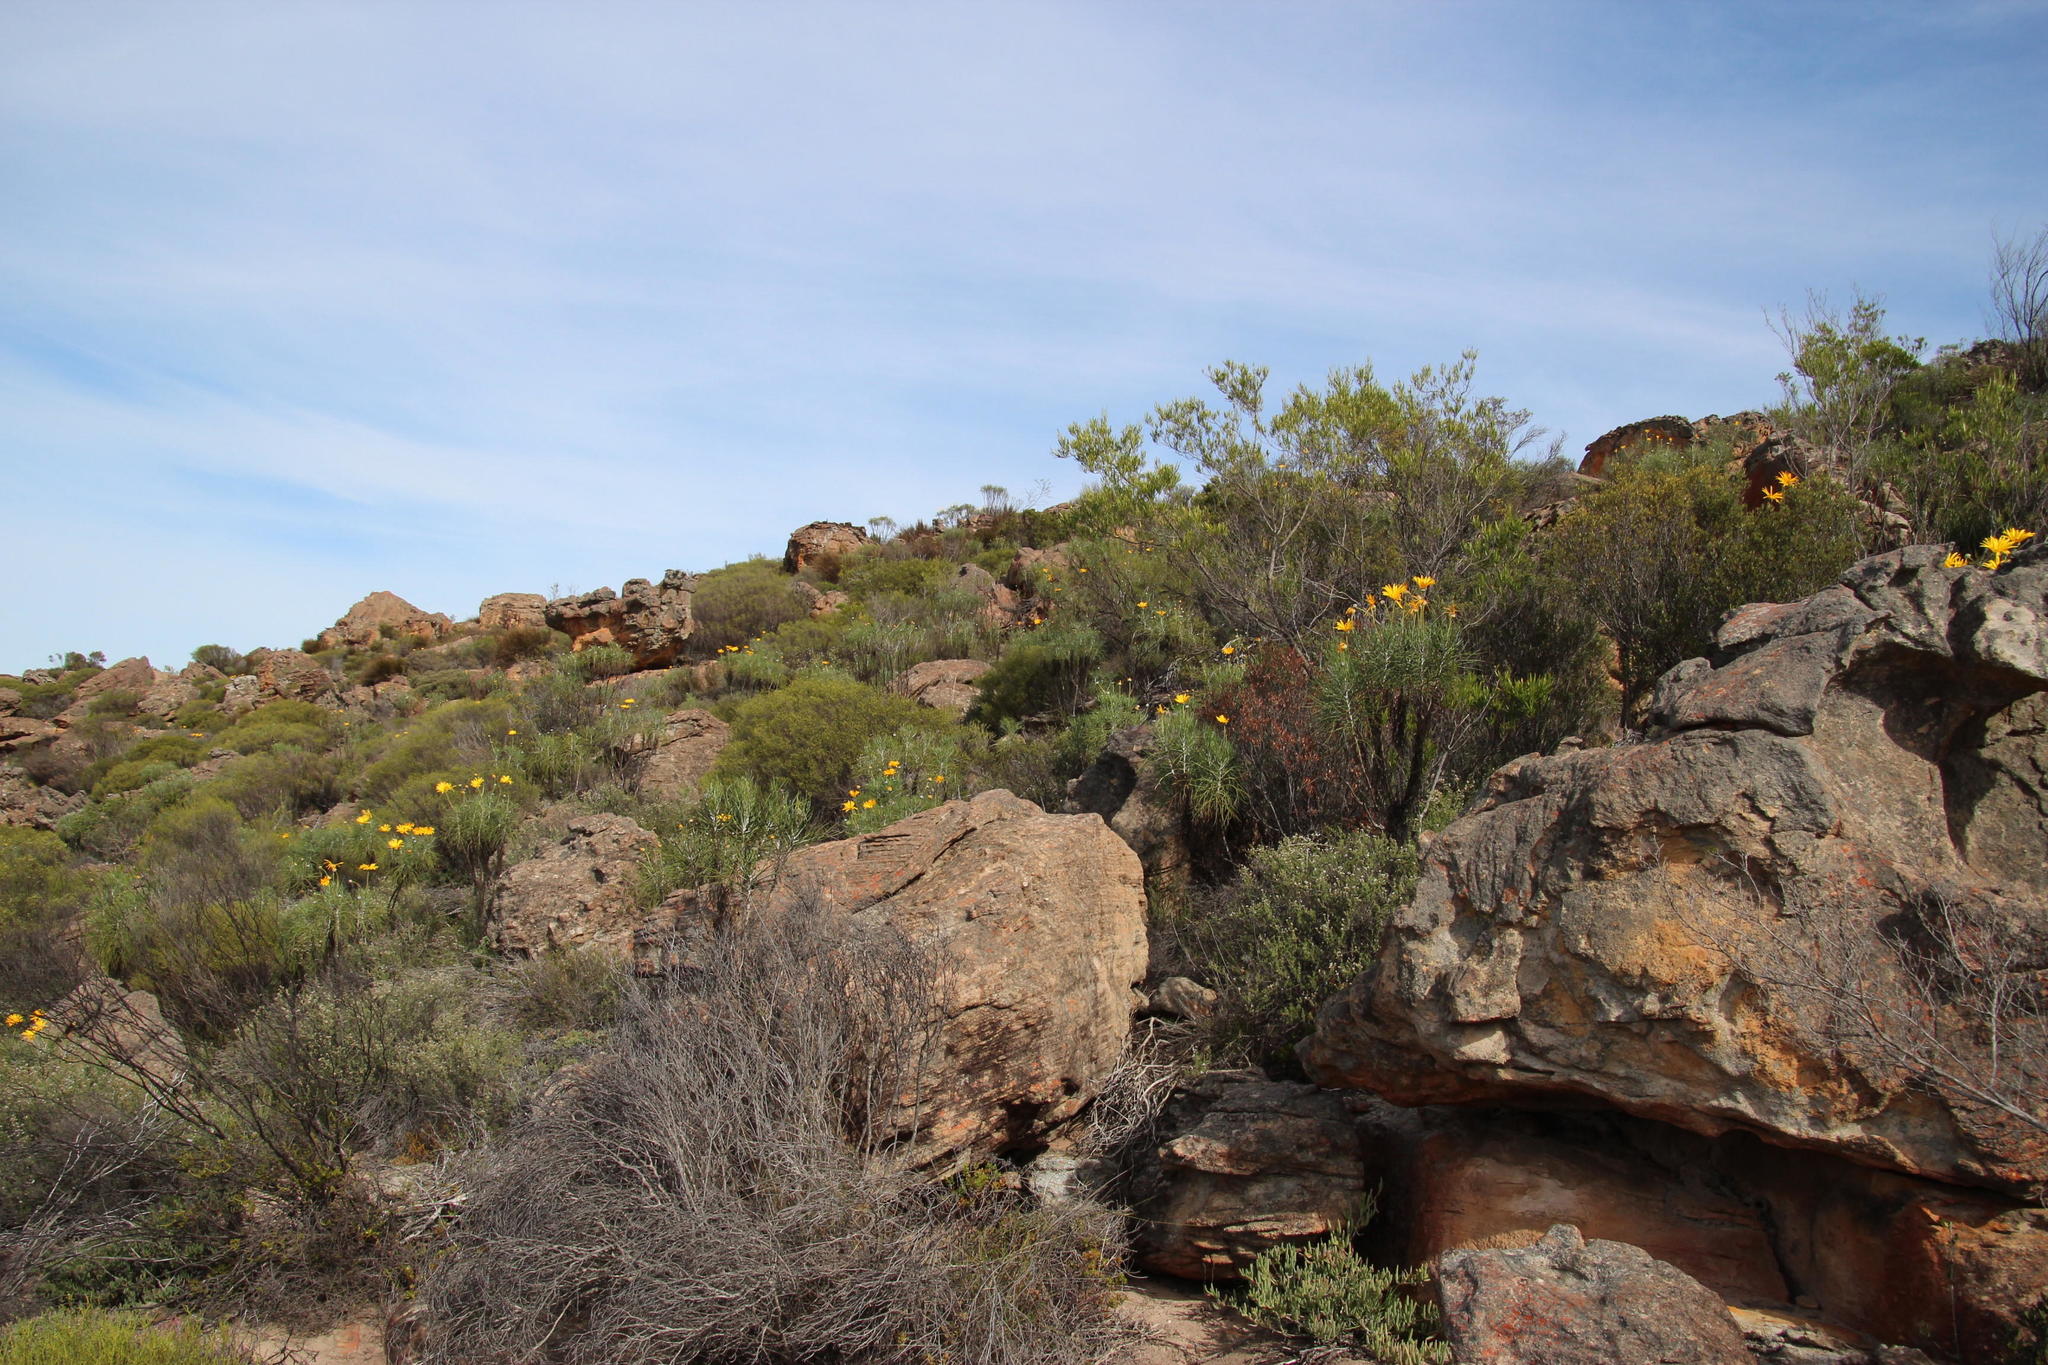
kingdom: Plantae
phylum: Tracheophyta
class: Magnoliopsida
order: Asterales
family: Asteraceae
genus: Euryops
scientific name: Euryops speciosissimus
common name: Clanwilliam daisy
